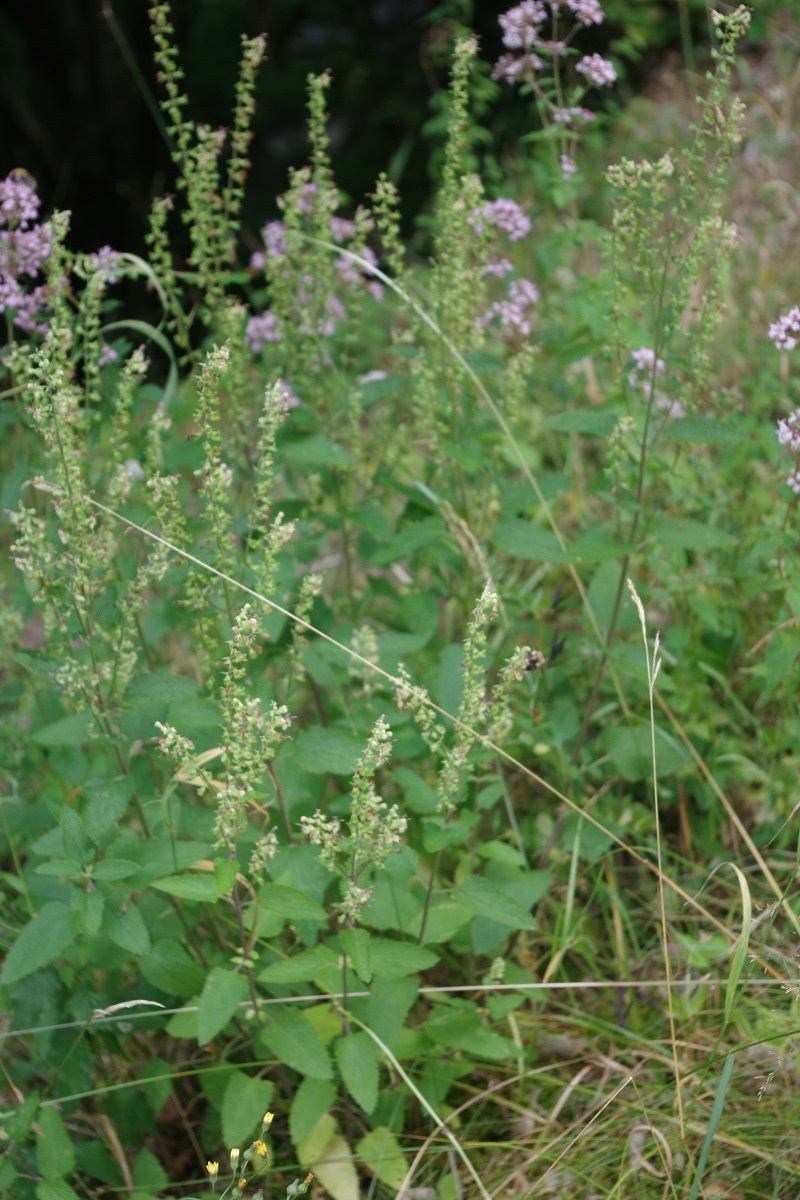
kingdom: Plantae
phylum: Tracheophyta
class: Magnoliopsida
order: Lamiales
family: Lamiaceae
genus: Teucrium
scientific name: Teucrium scorodonia
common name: Woodland germander
